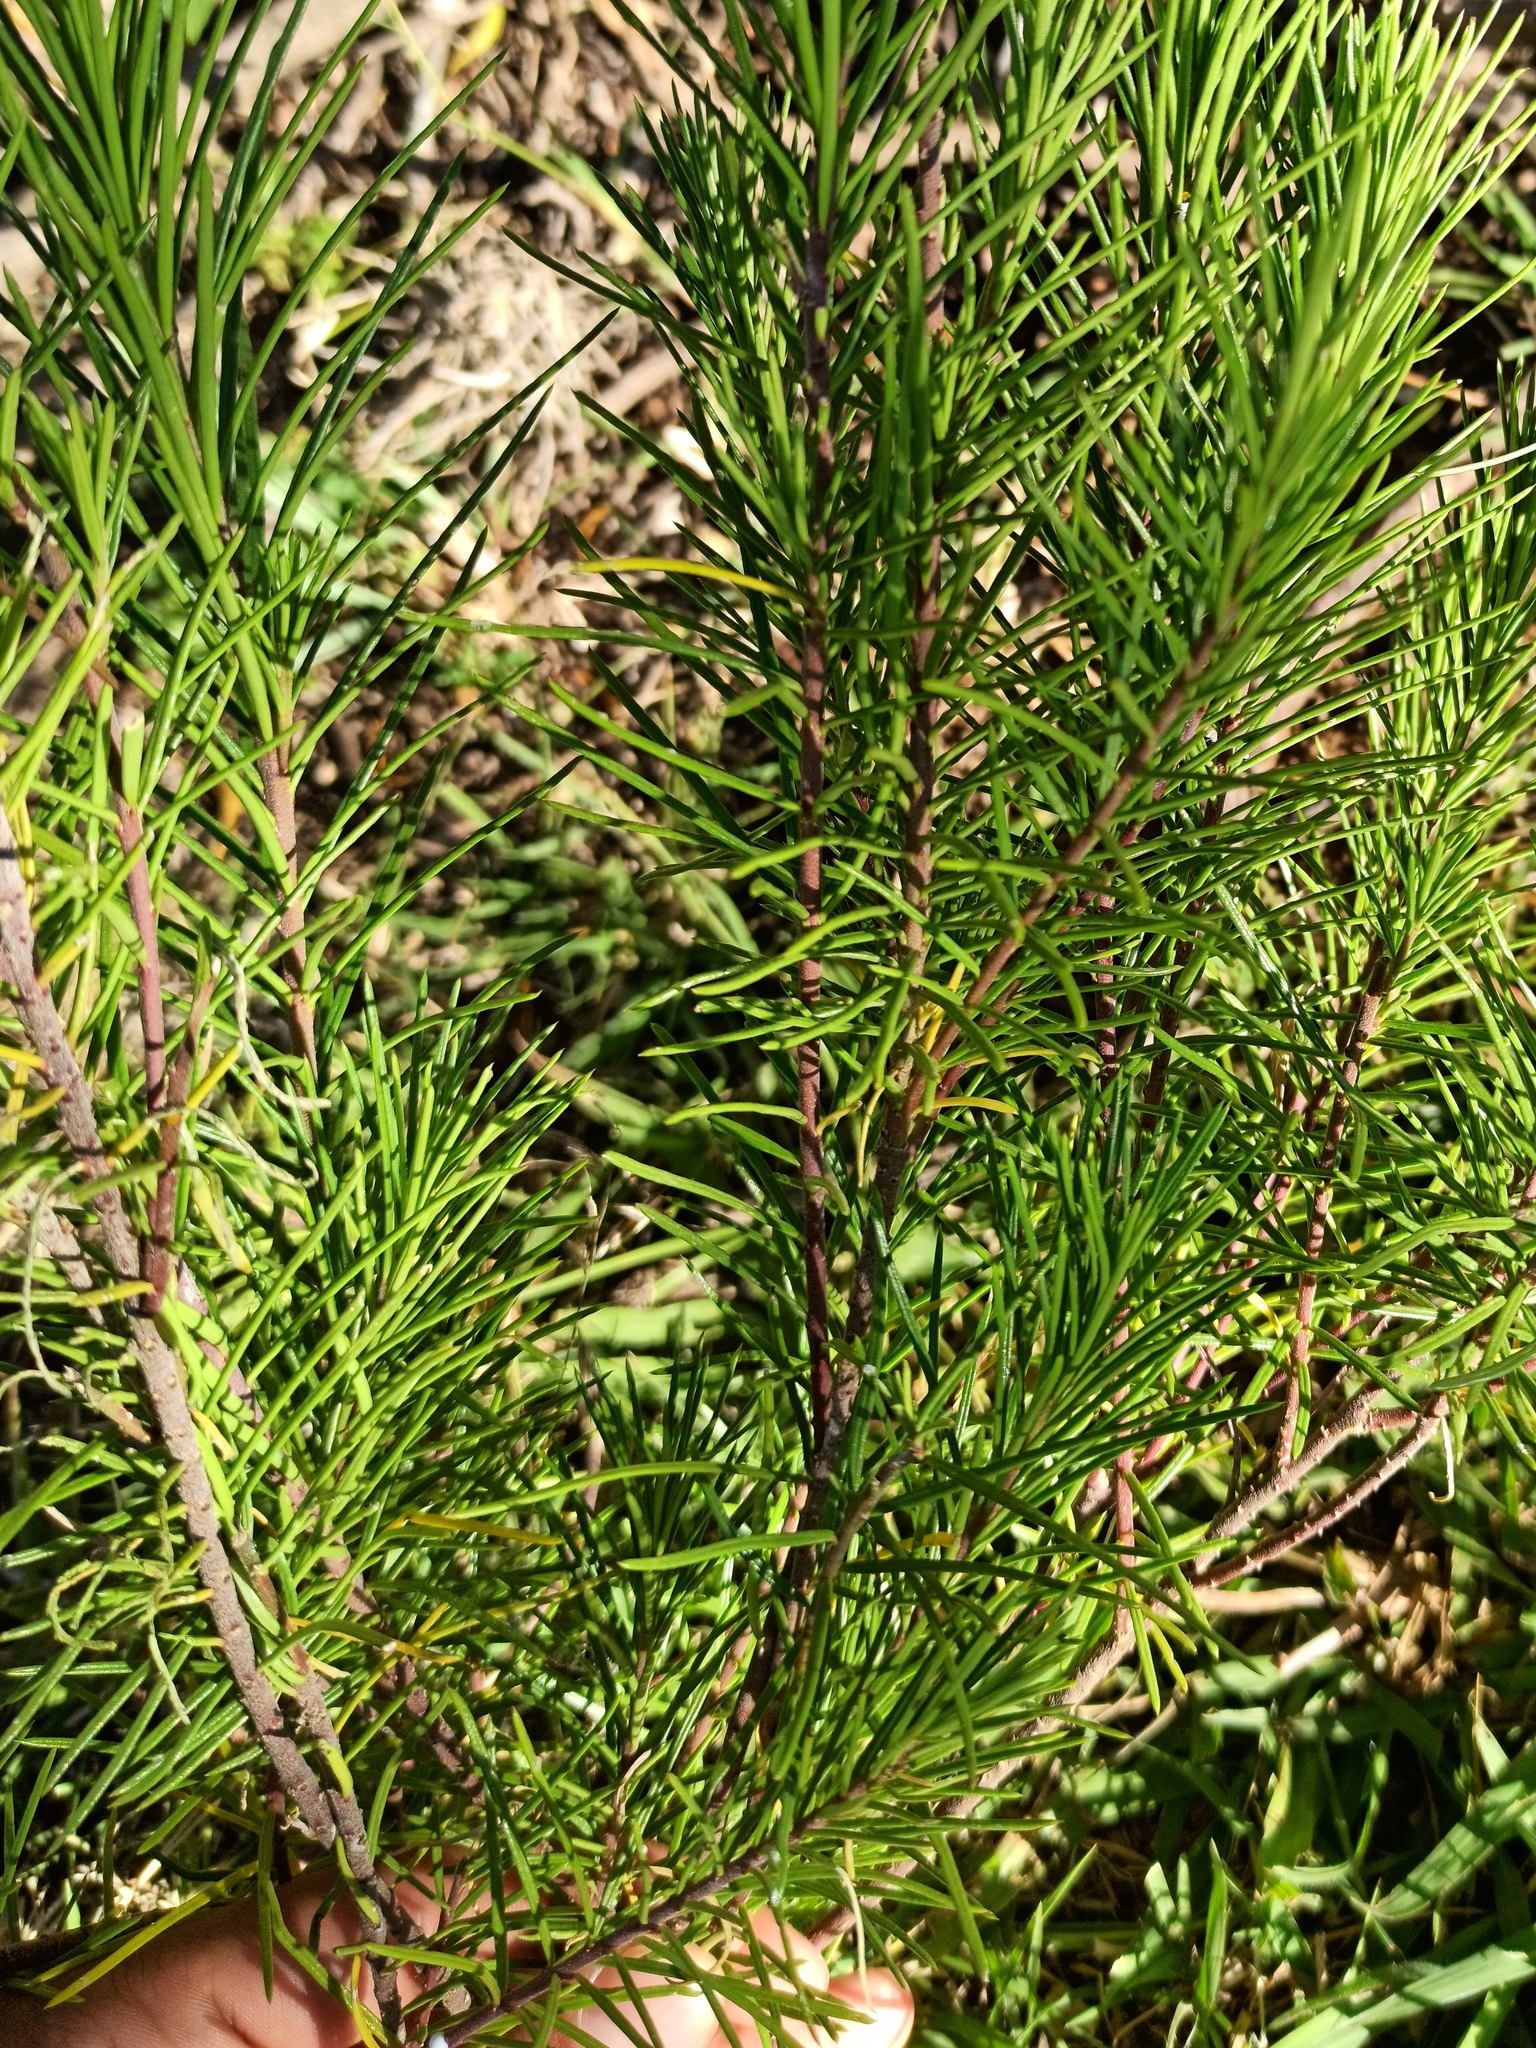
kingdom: Plantae
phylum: Tracheophyta
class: Magnoliopsida
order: Gentianales
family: Apocynaceae
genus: Asclepias
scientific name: Asclepias linaria
